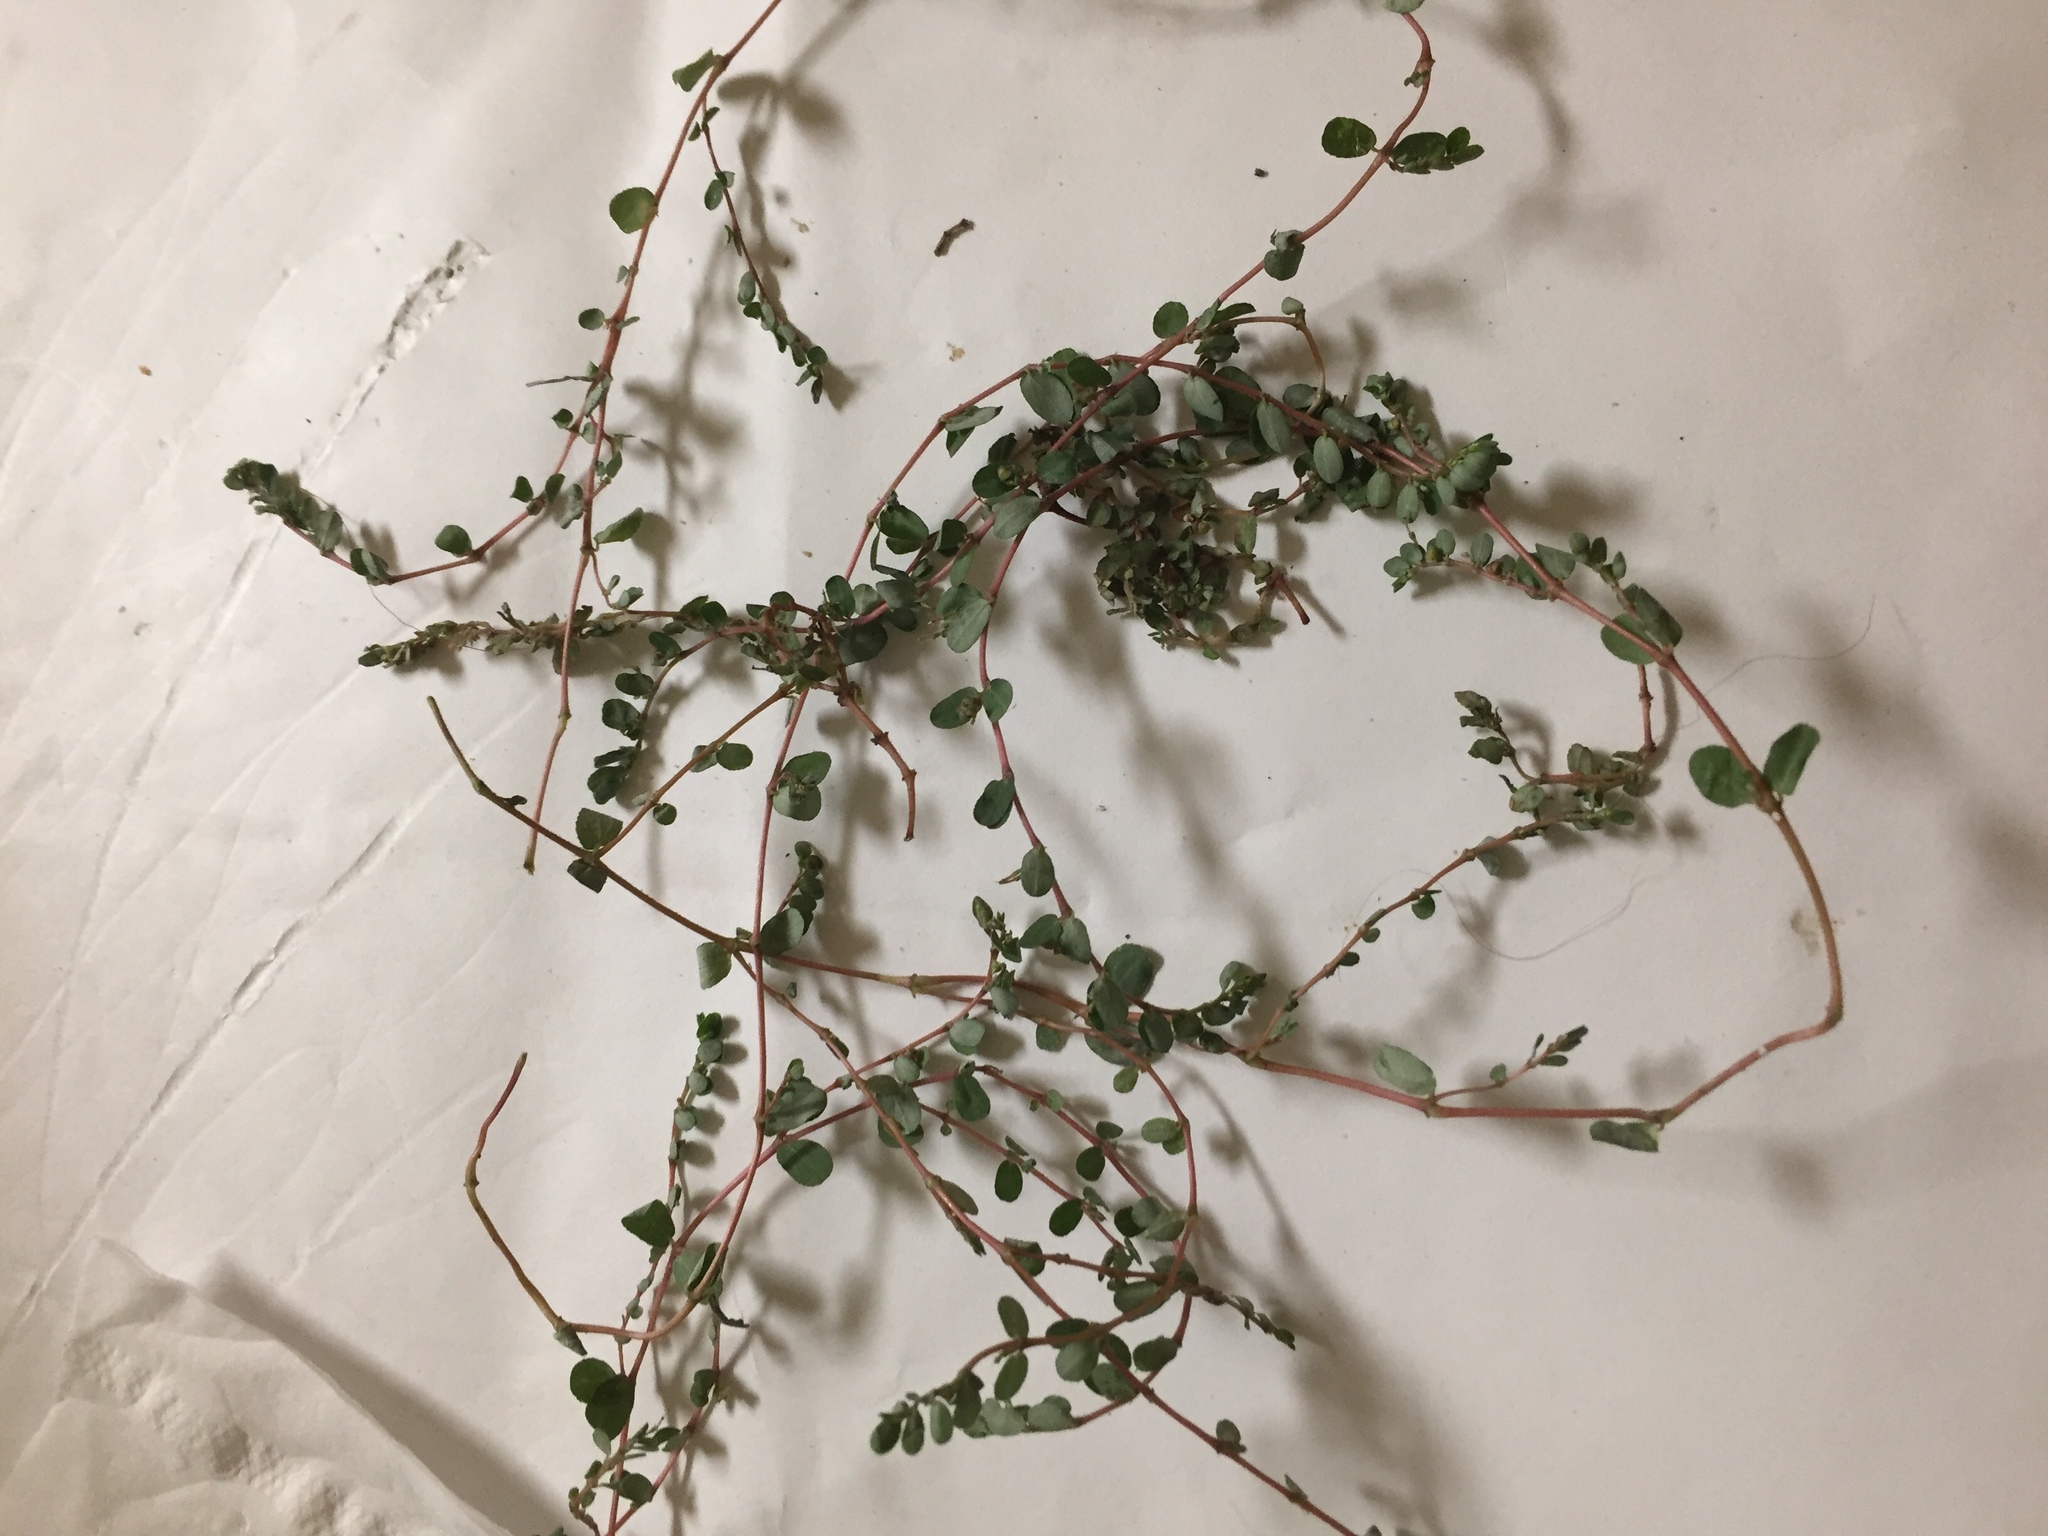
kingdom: Plantae
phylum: Tracheophyta
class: Magnoliopsida
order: Malpighiales
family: Euphorbiaceae
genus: Euphorbia
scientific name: Euphorbia prostrata
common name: Prostrate sandmat
